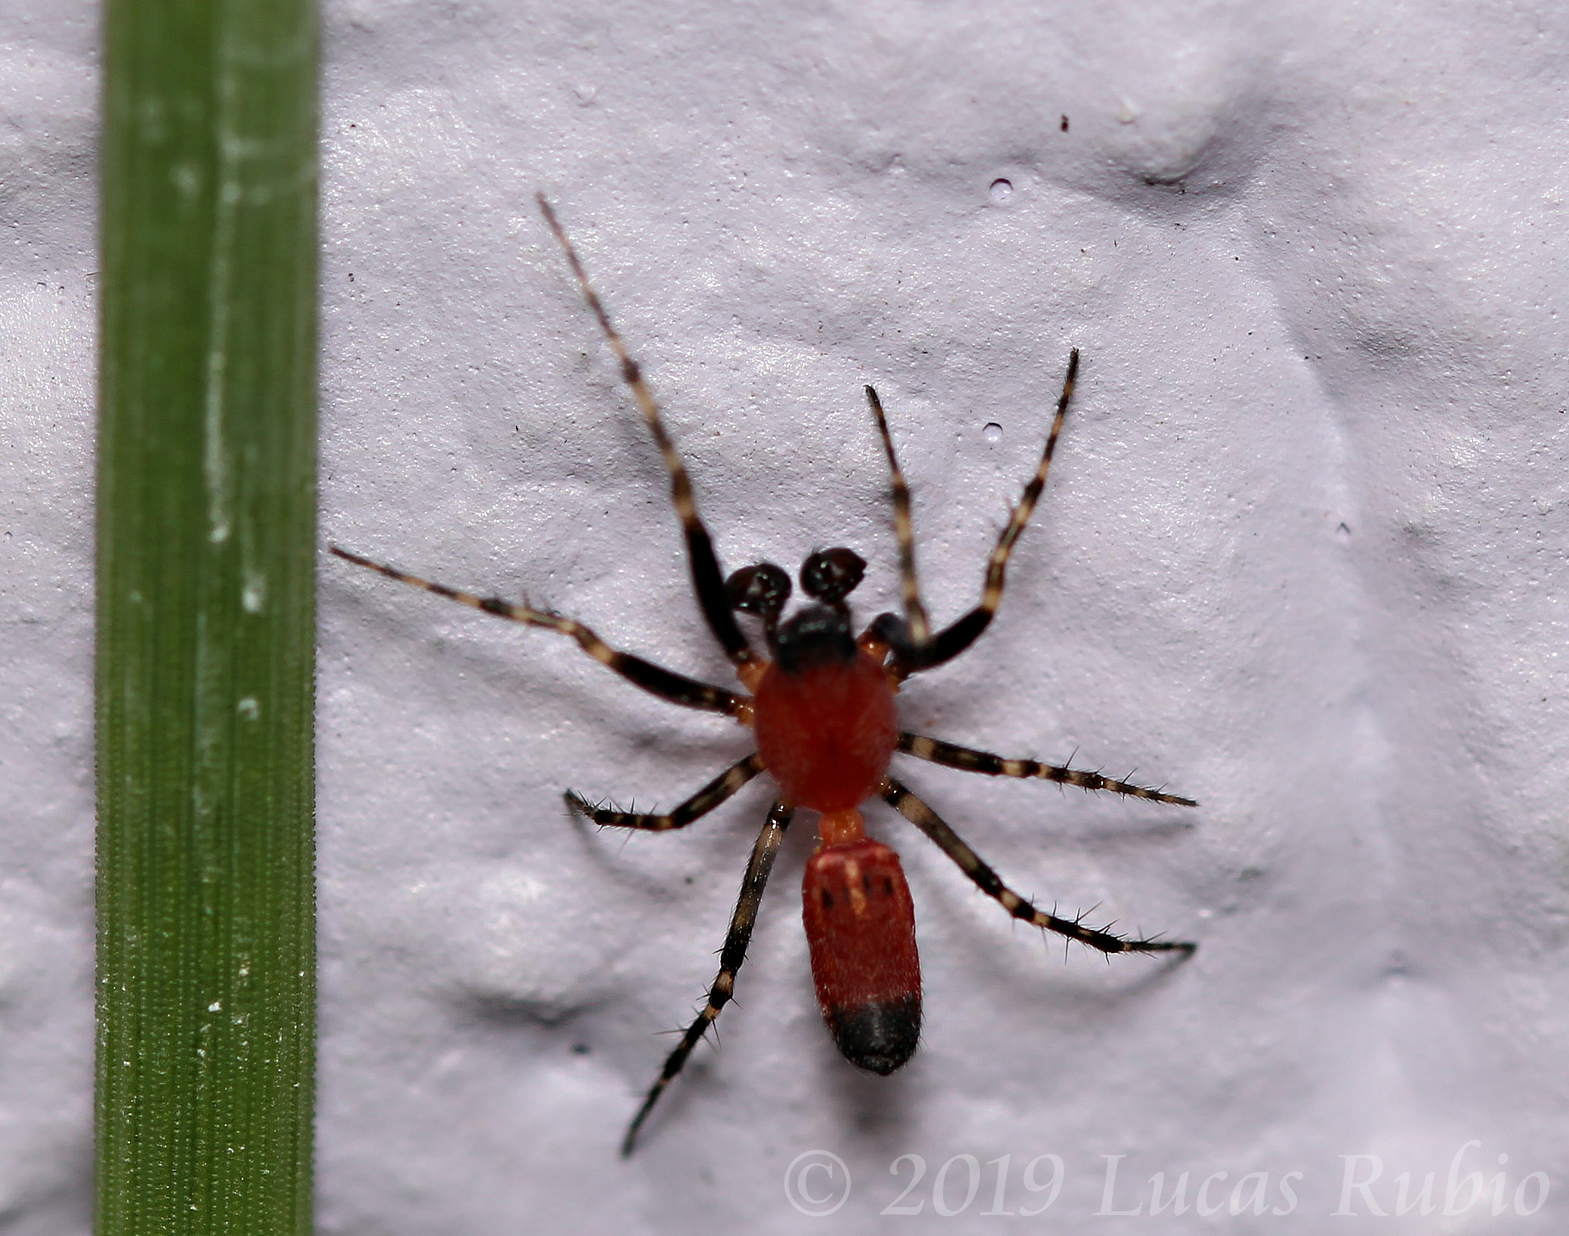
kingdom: Animalia
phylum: Arthropoda
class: Arachnida
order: Araneae
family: Araneidae
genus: Alpaida
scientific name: Alpaida leucogramma
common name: Orb weavers
